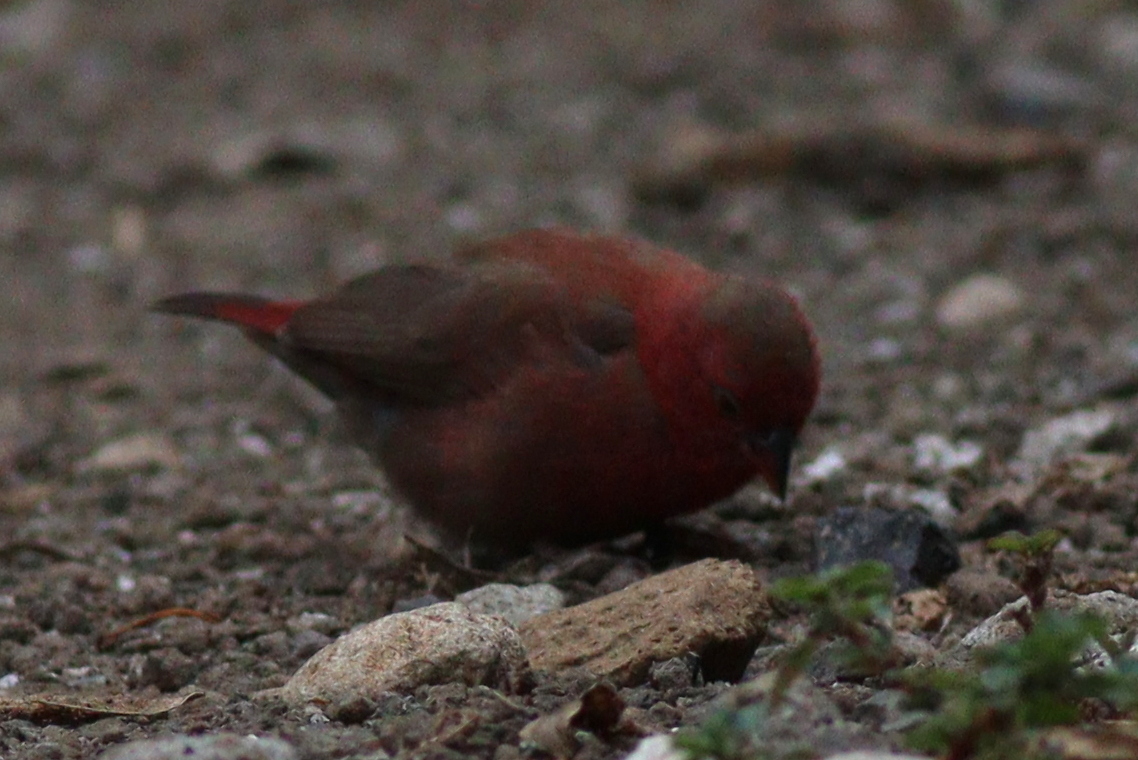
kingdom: Animalia
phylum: Chordata
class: Aves
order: Passeriformes
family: Estrildidae
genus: Lagonosticta
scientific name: Lagonosticta senegala
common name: Red-billed firefinch
